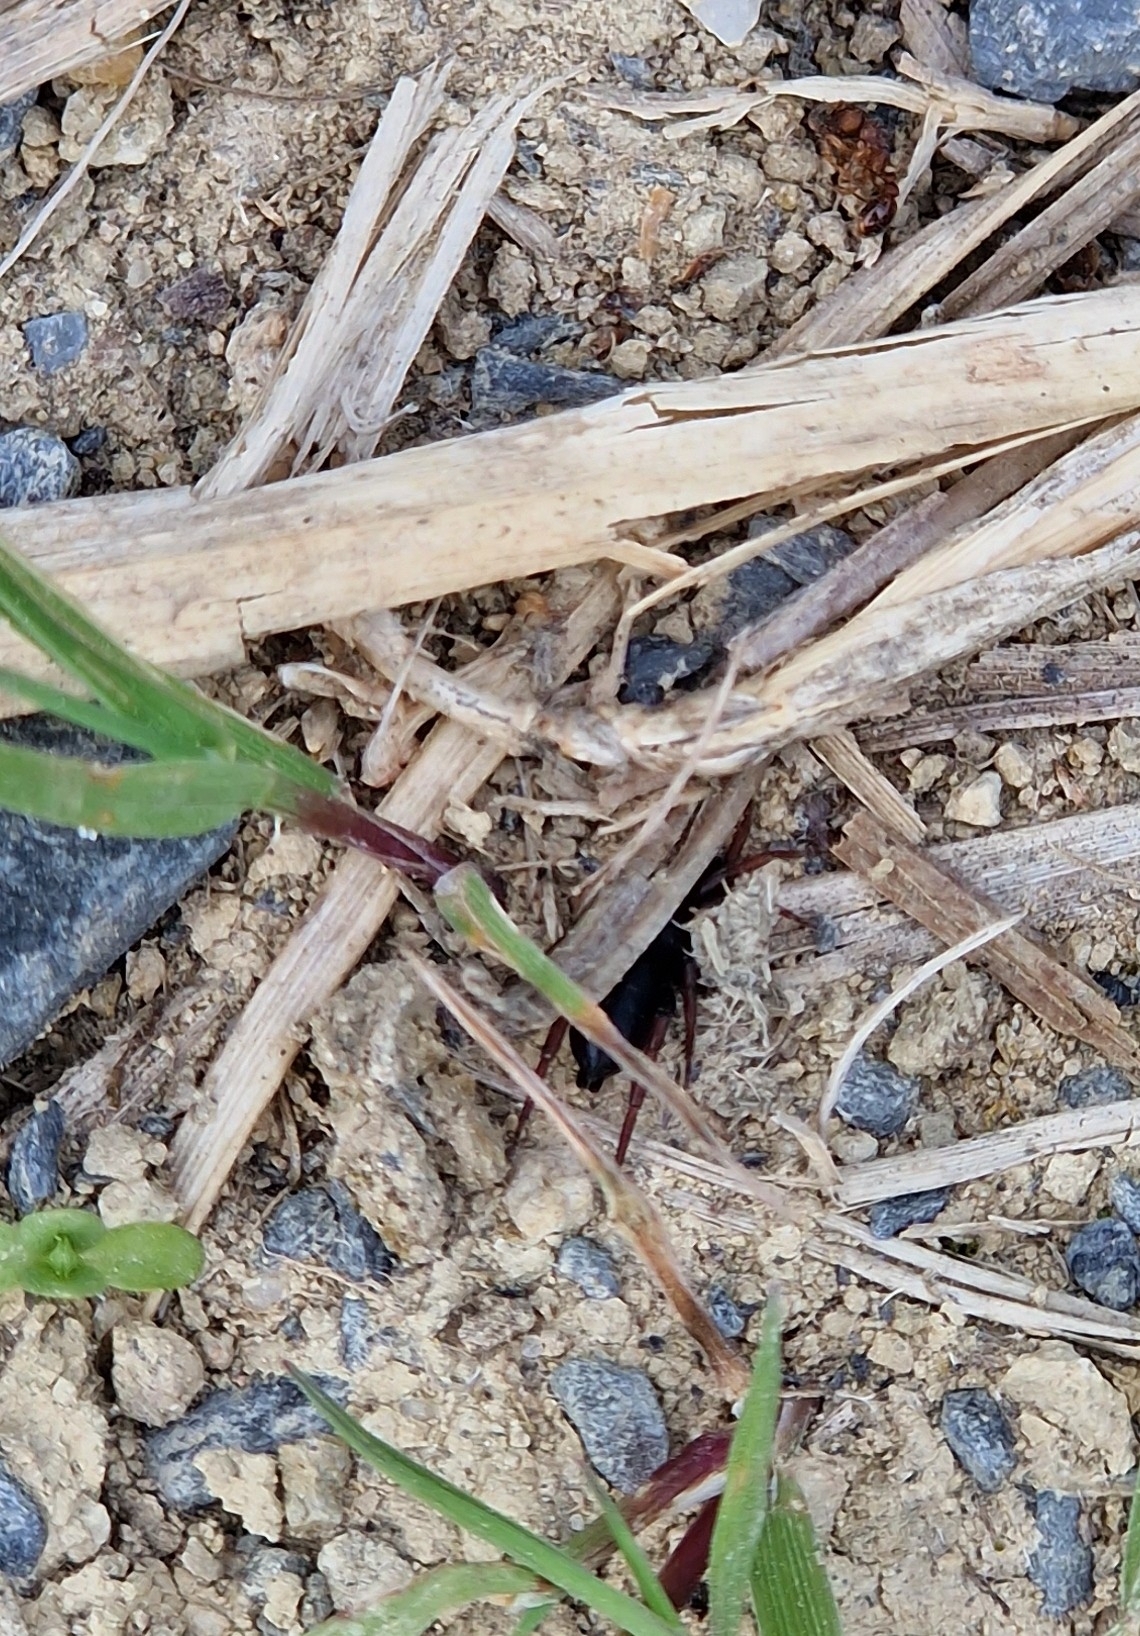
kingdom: Animalia
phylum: Arthropoda
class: Arachnida
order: Araneae
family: Gnaphosidae
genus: Trachyzelotes
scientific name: Trachyzelotes pedestris
